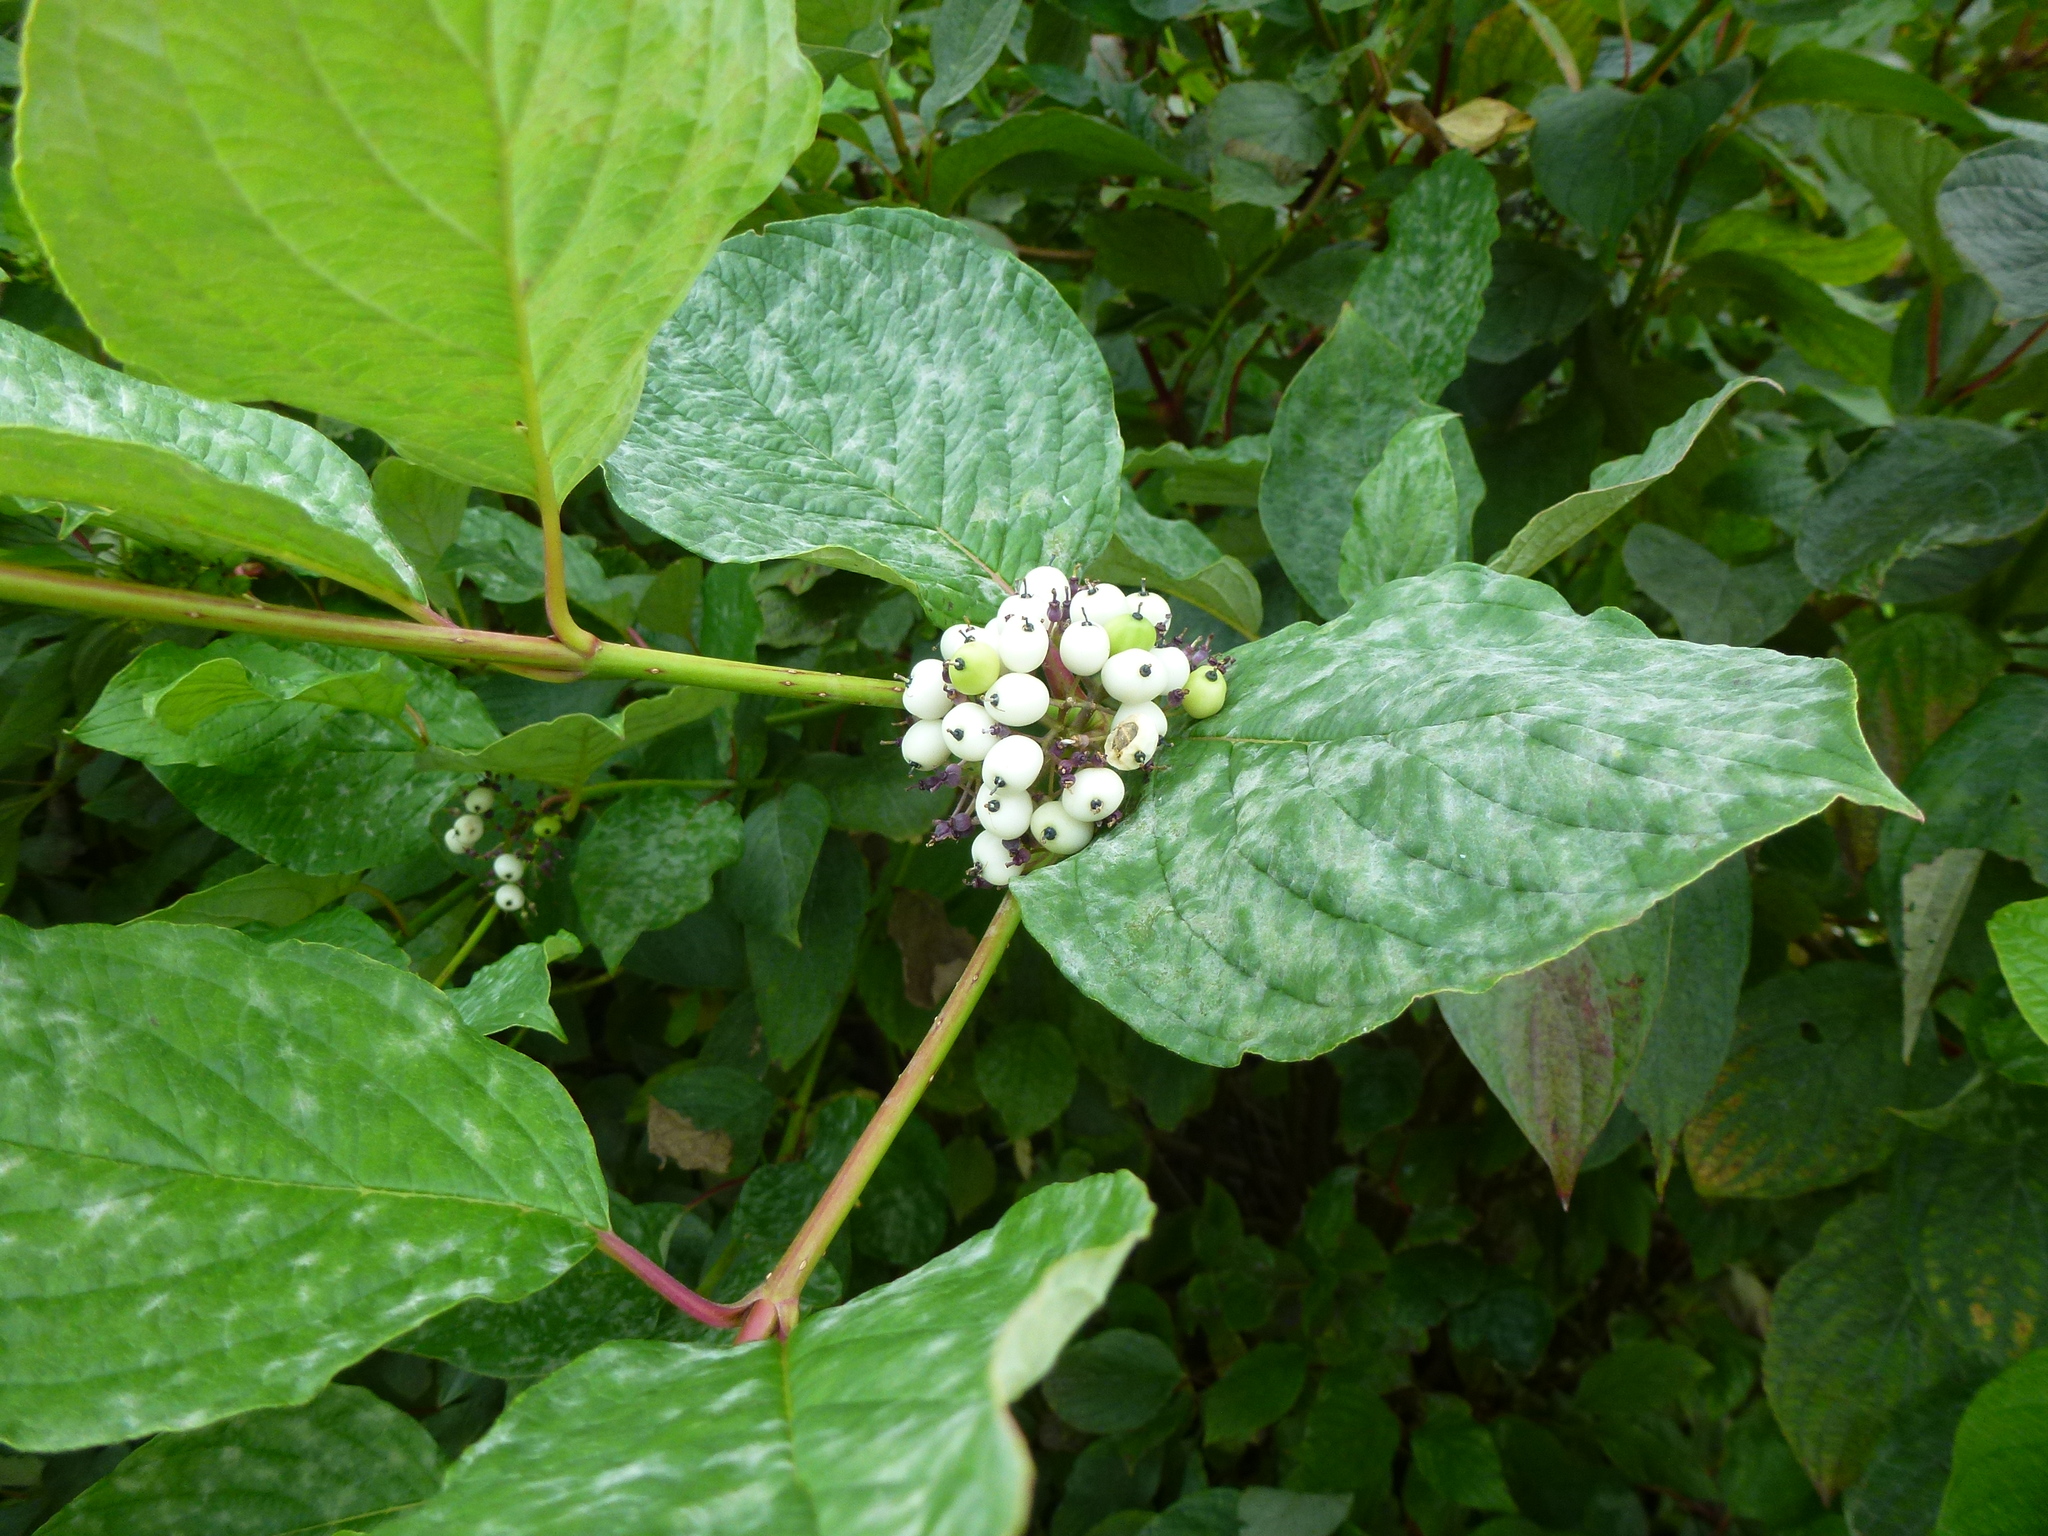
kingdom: Fungi
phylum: Ascomycota
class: Leotiomycetes
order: Helotiales
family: Erysiphaceae
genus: Erysiphe
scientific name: Erysiphe tortilis
